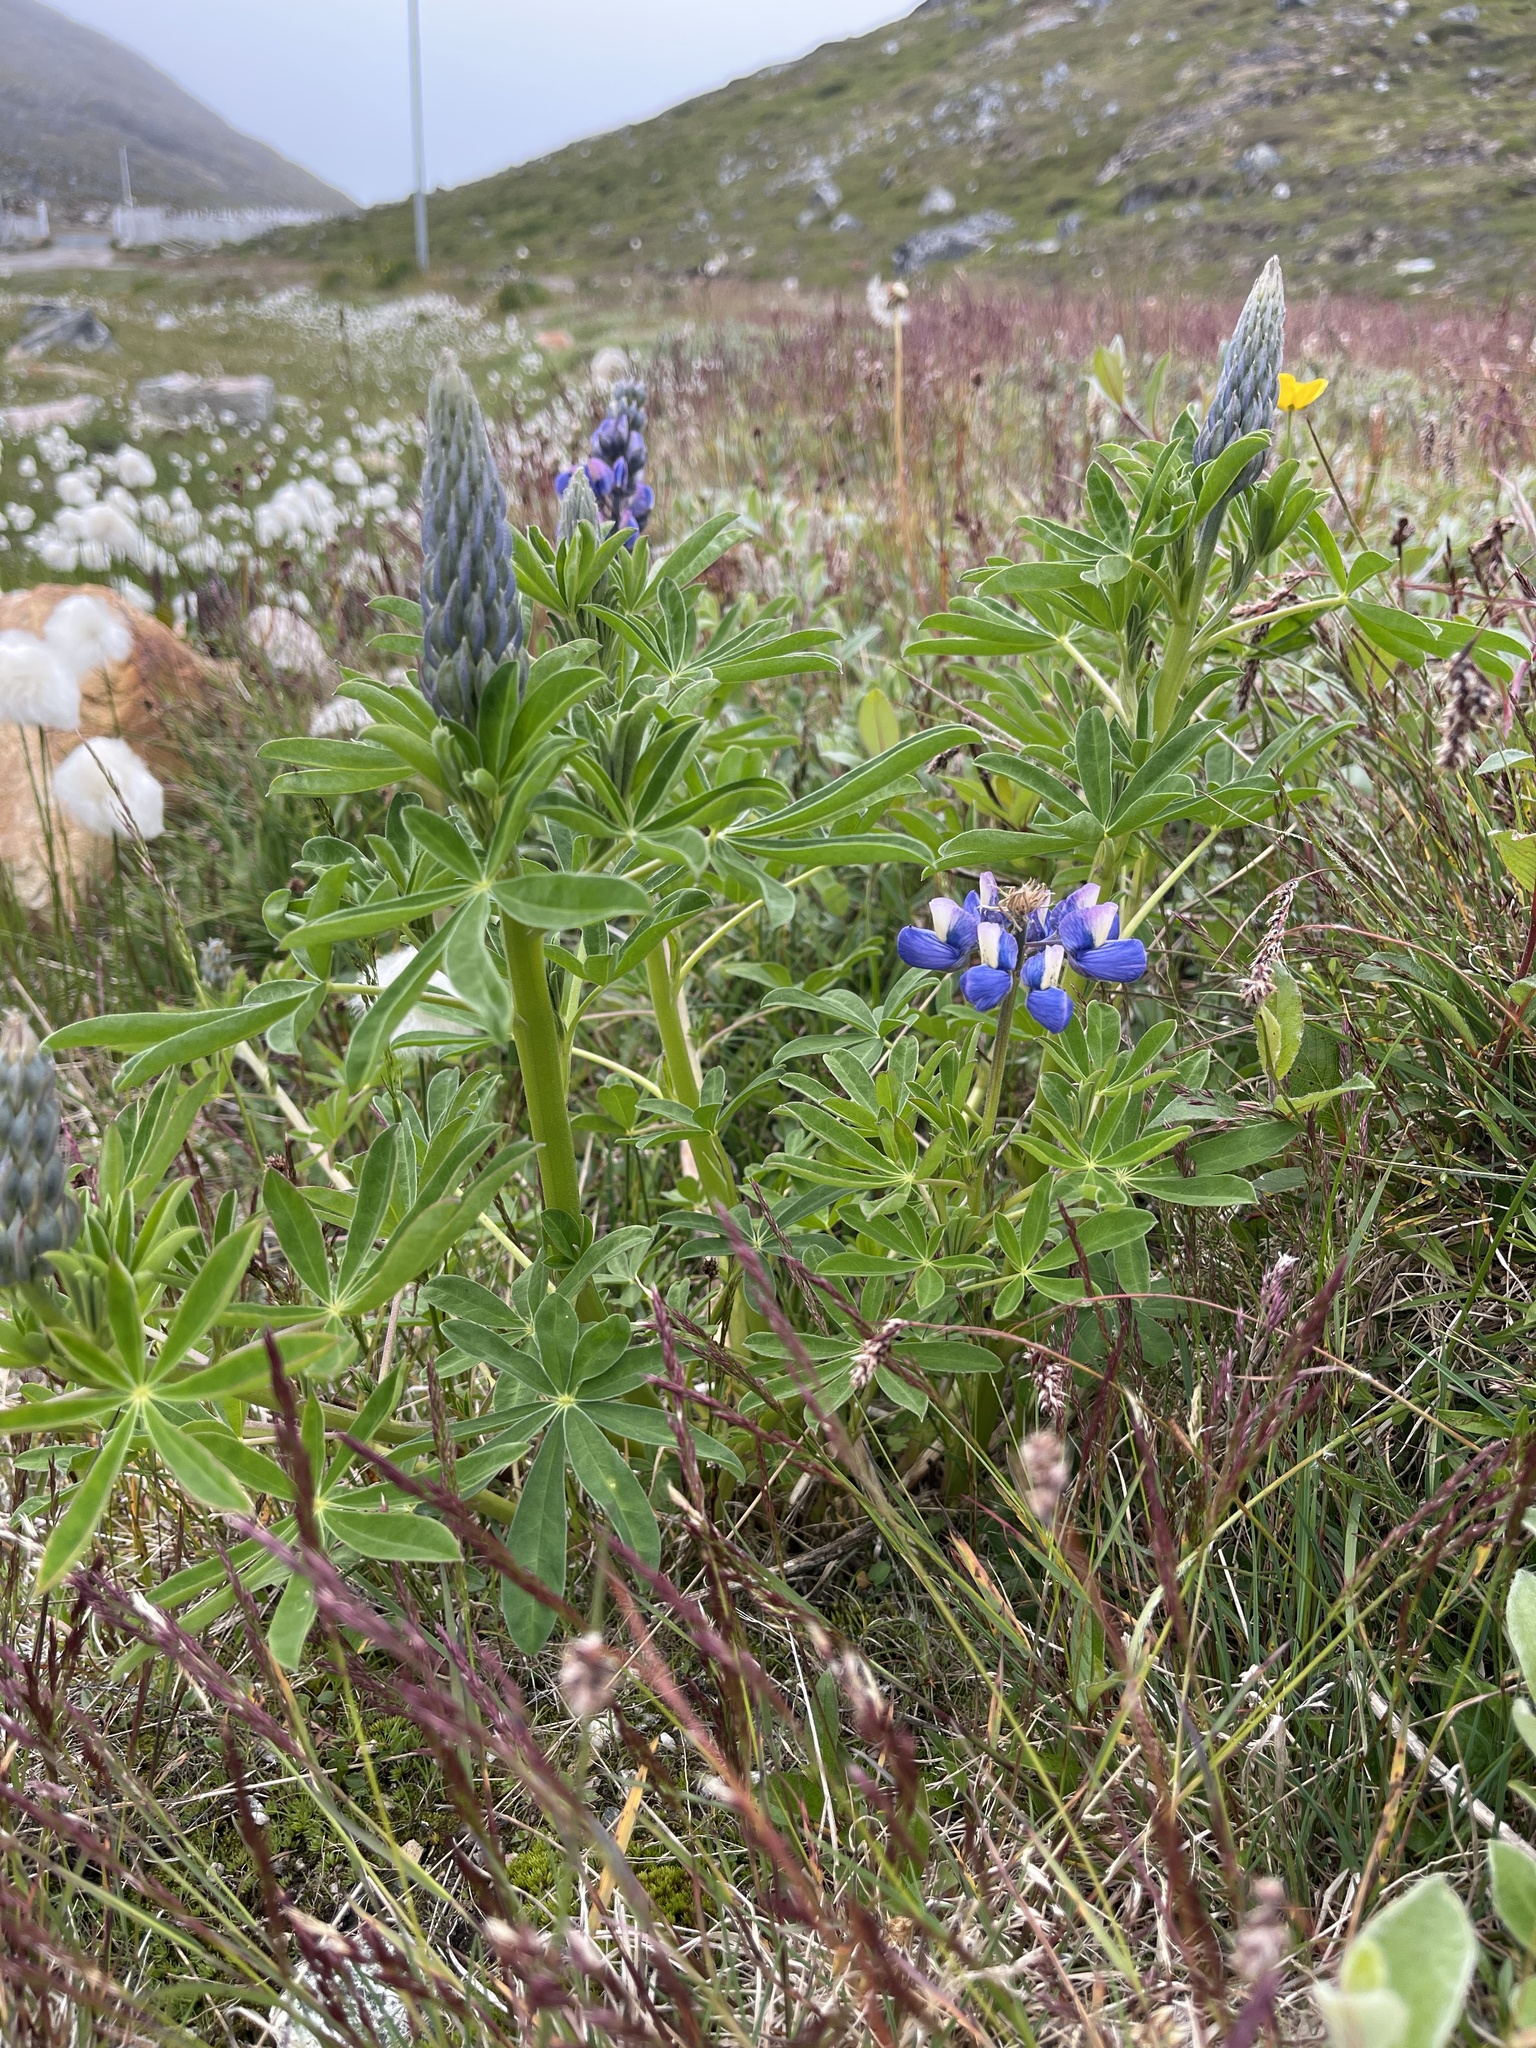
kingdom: Plantae
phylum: Tracheophyta
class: Magnoliopsida
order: Fabales
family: Fabaceae
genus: Lupinus
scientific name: Lupinus nootkatensis
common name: Nootka lupine
